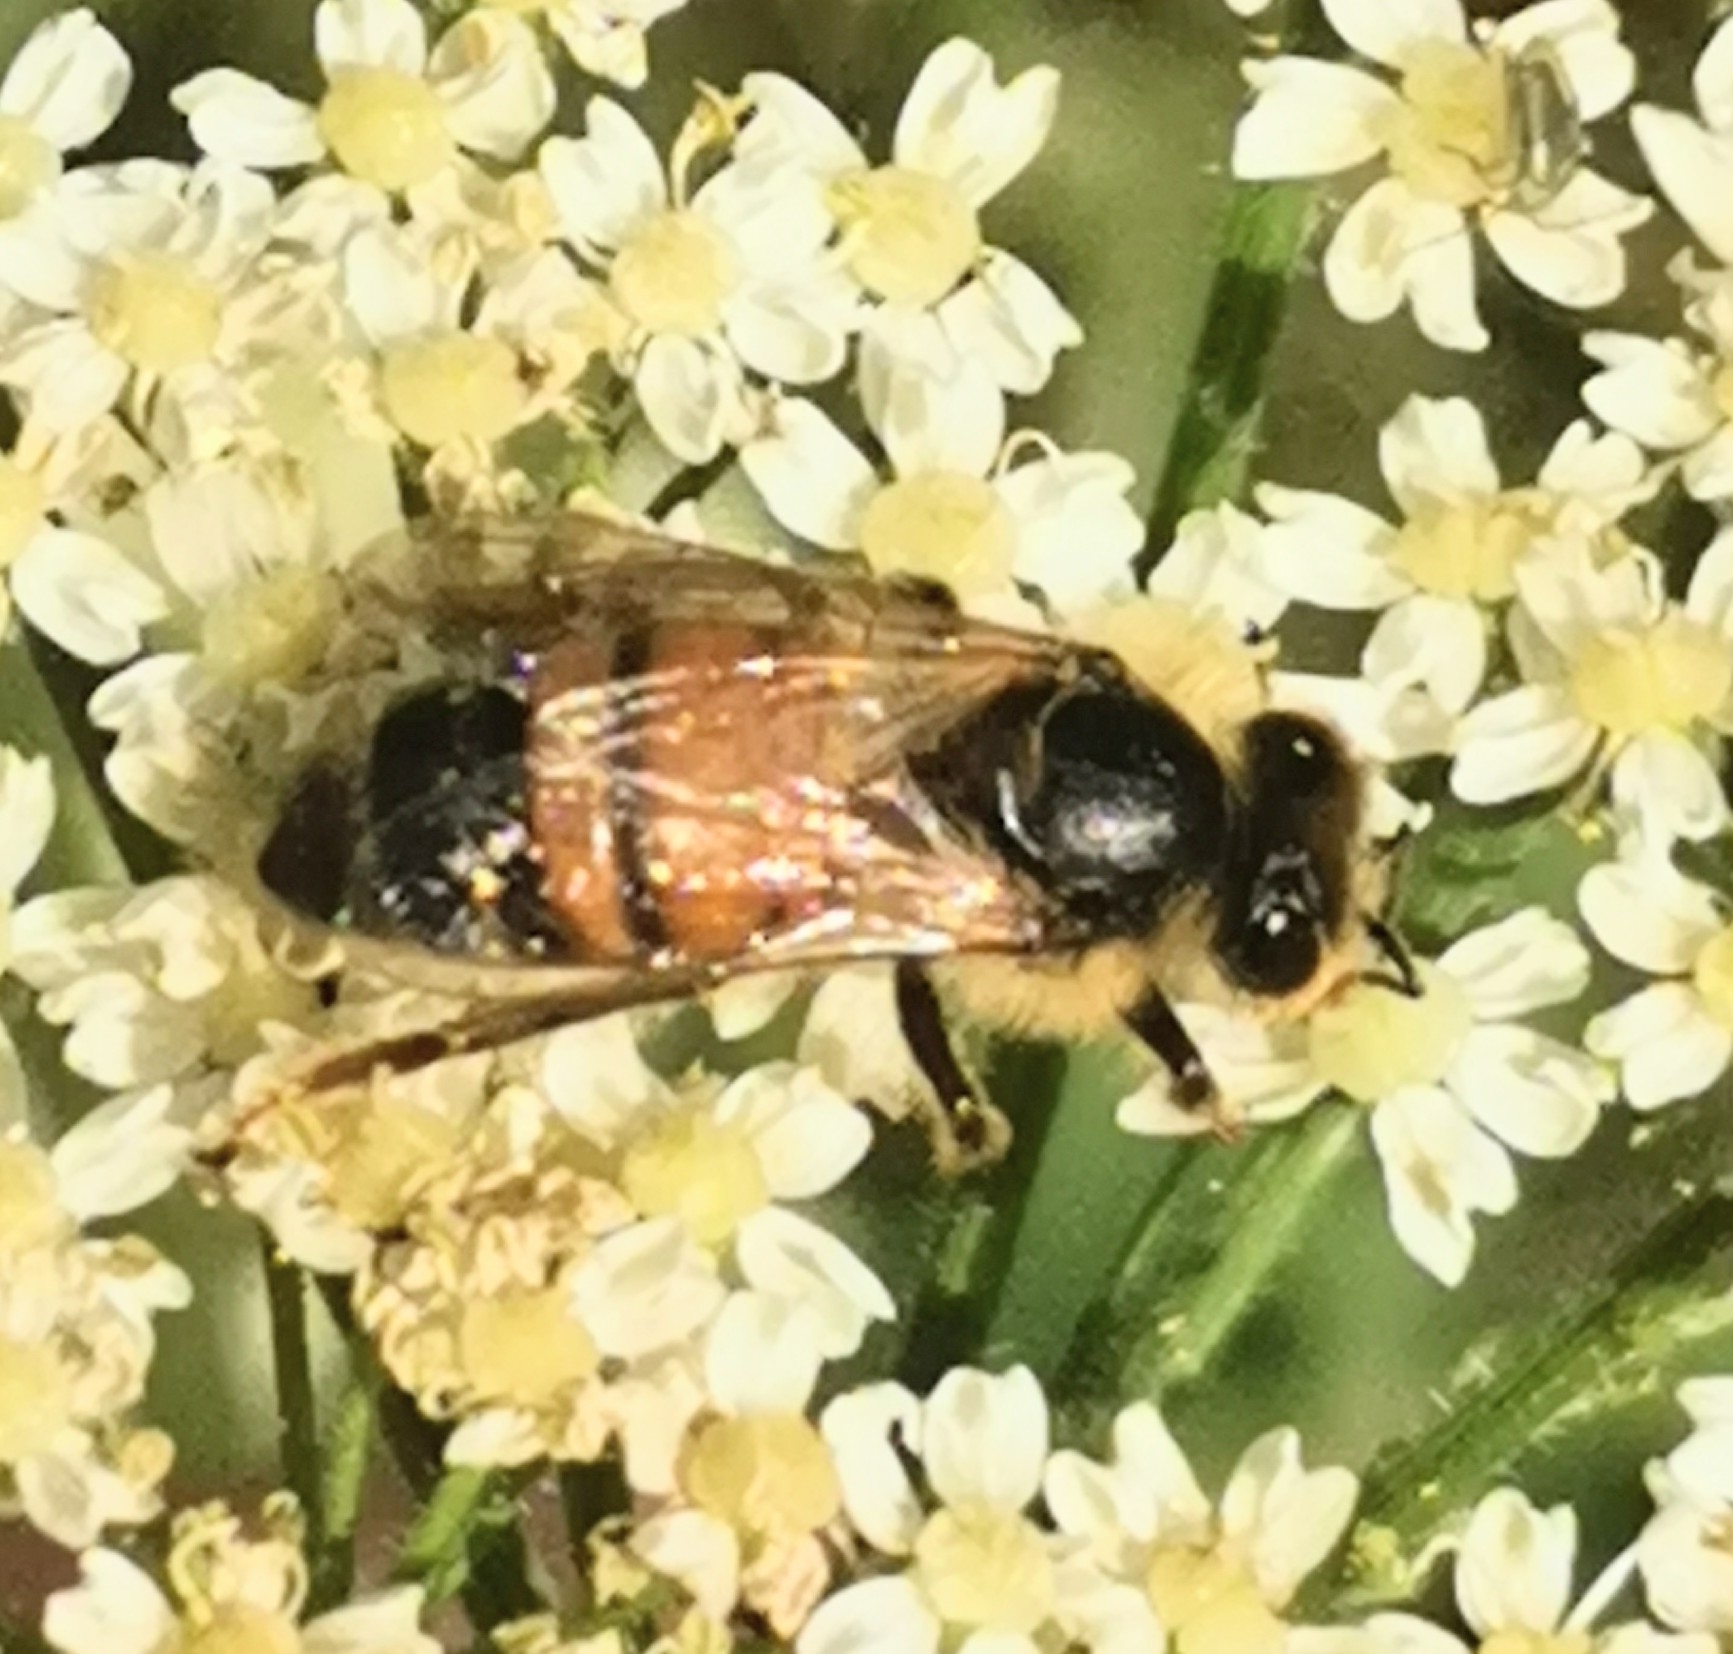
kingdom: Animalia
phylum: Arthropoda
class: Insecta
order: Hymenoptera
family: Apidae
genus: Apis
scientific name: Apis mellifera
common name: Honey bee
